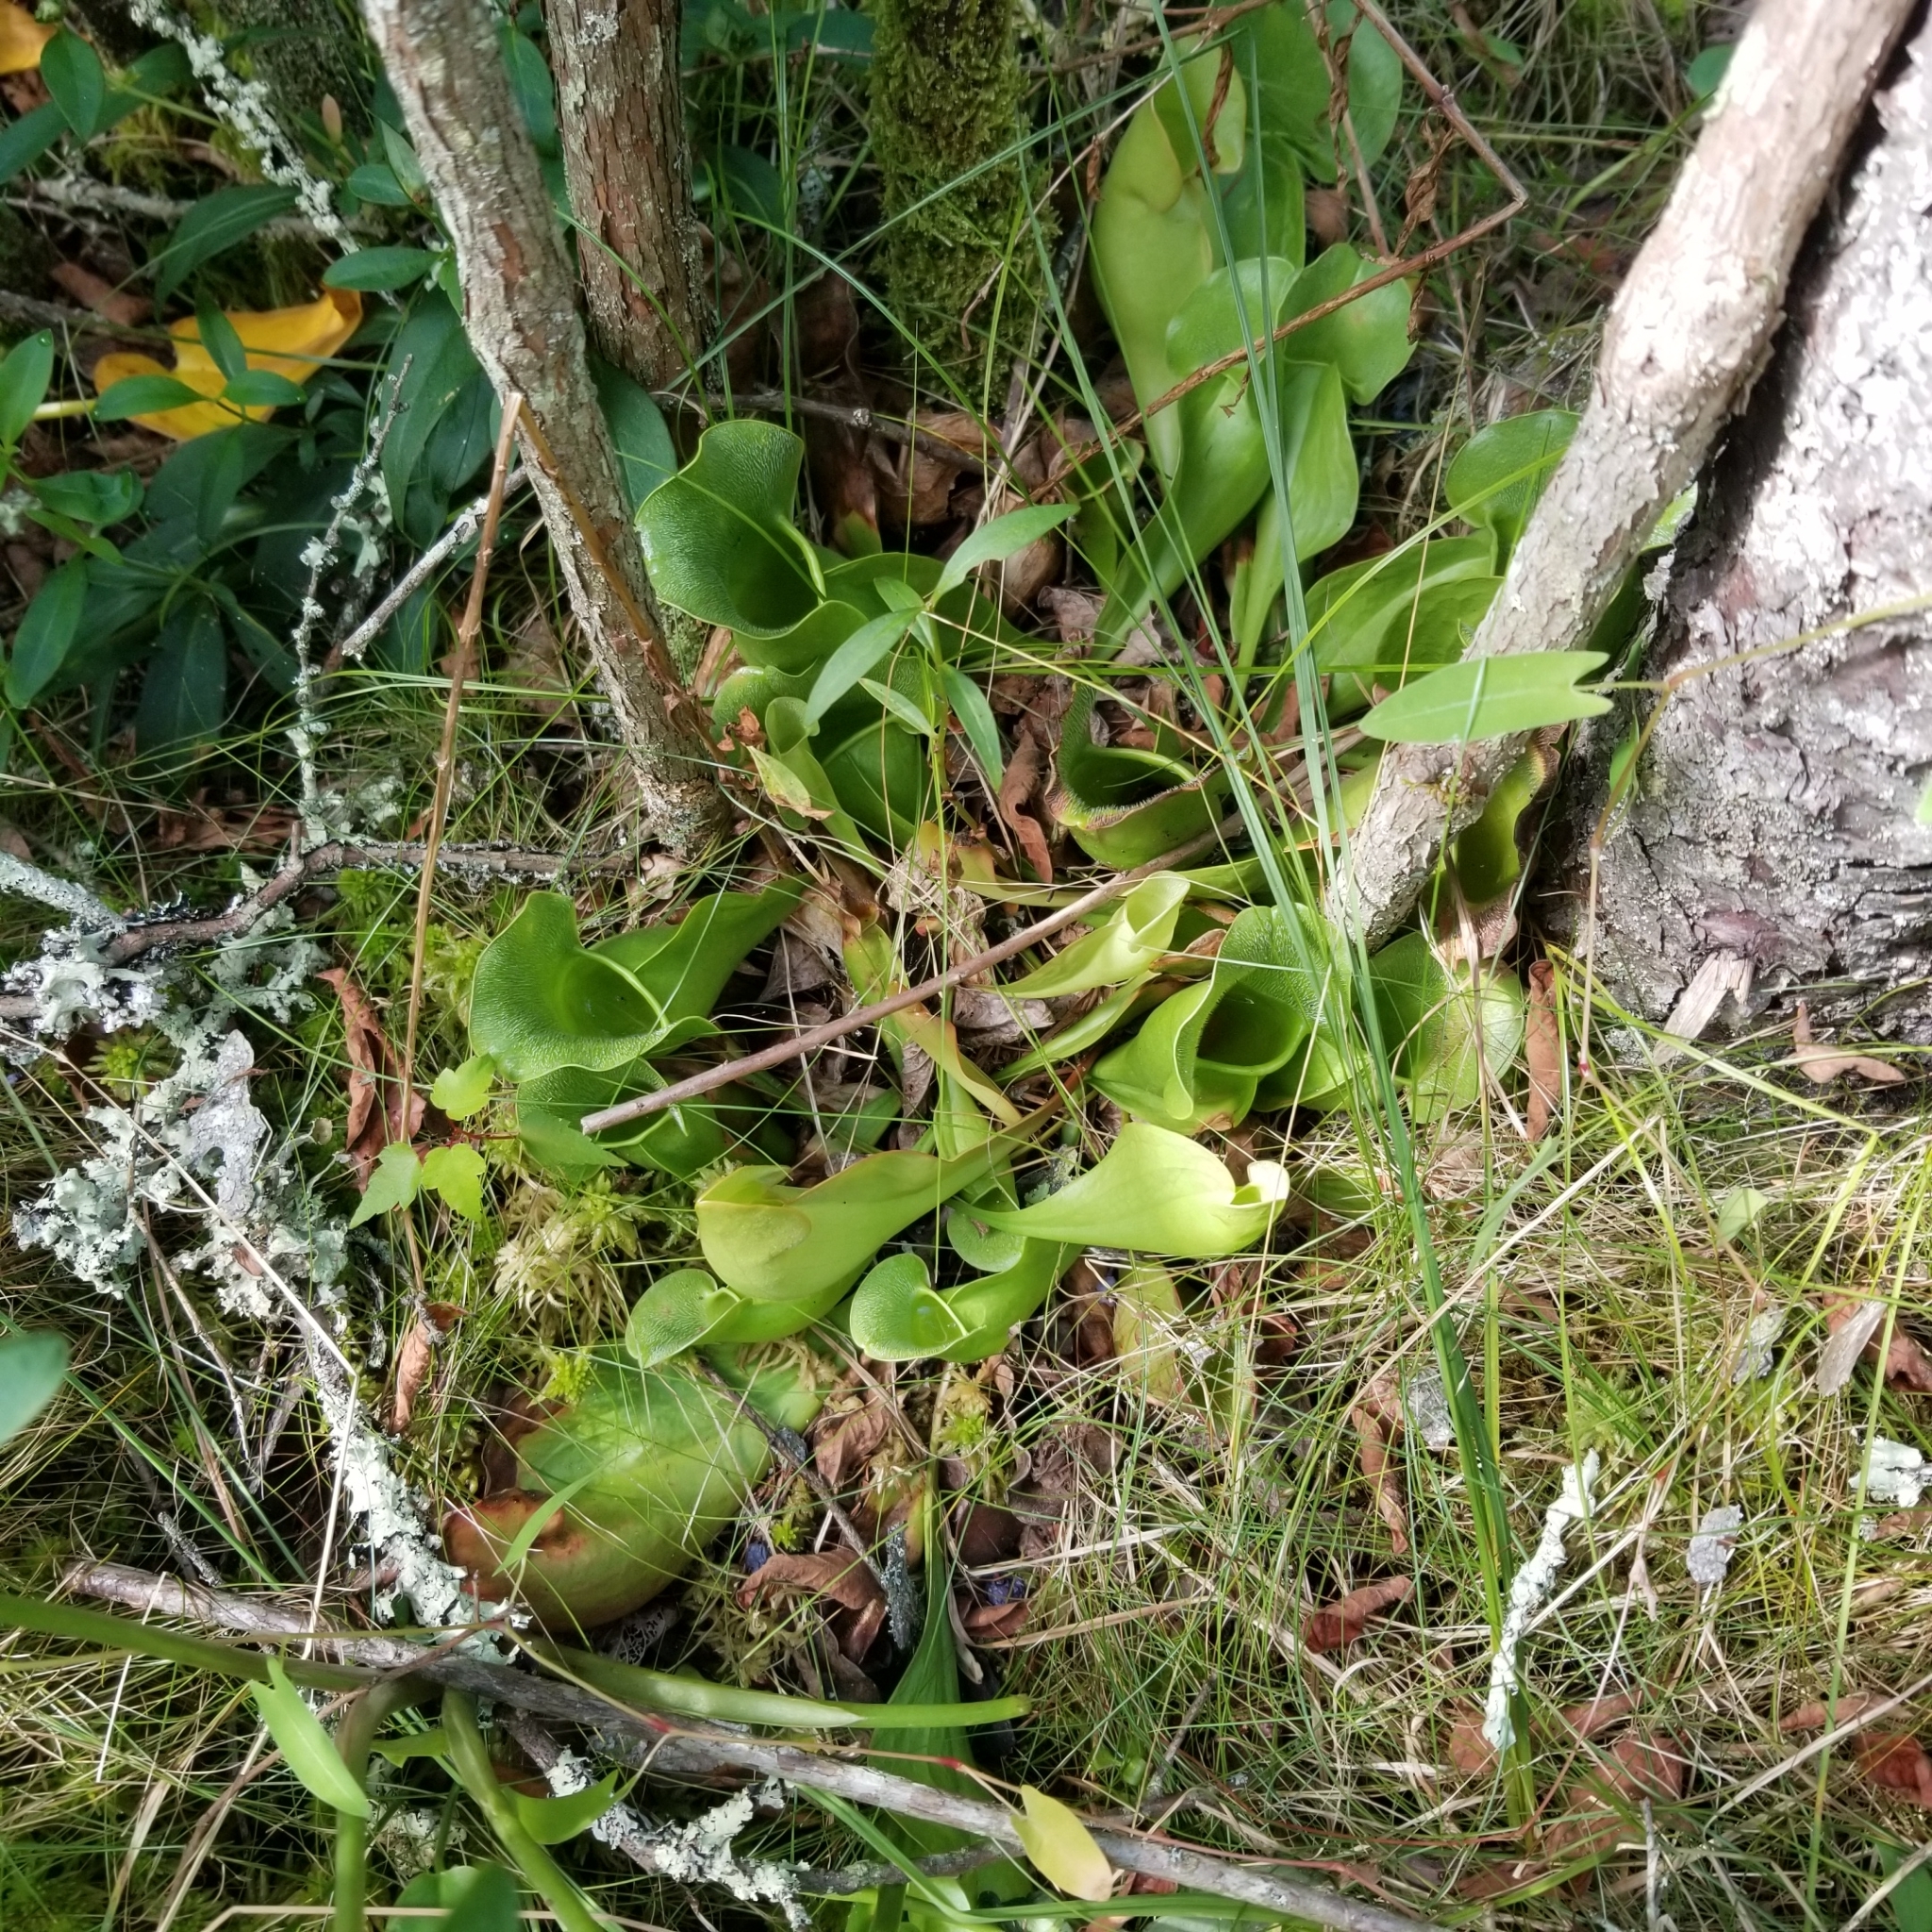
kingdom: Plantae
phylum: Tracheophyta
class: Magnoliopsida
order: Ericales
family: Sarraceniaceae
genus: Sarracenia
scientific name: Sarracenia purpurea
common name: Pitcherplant
